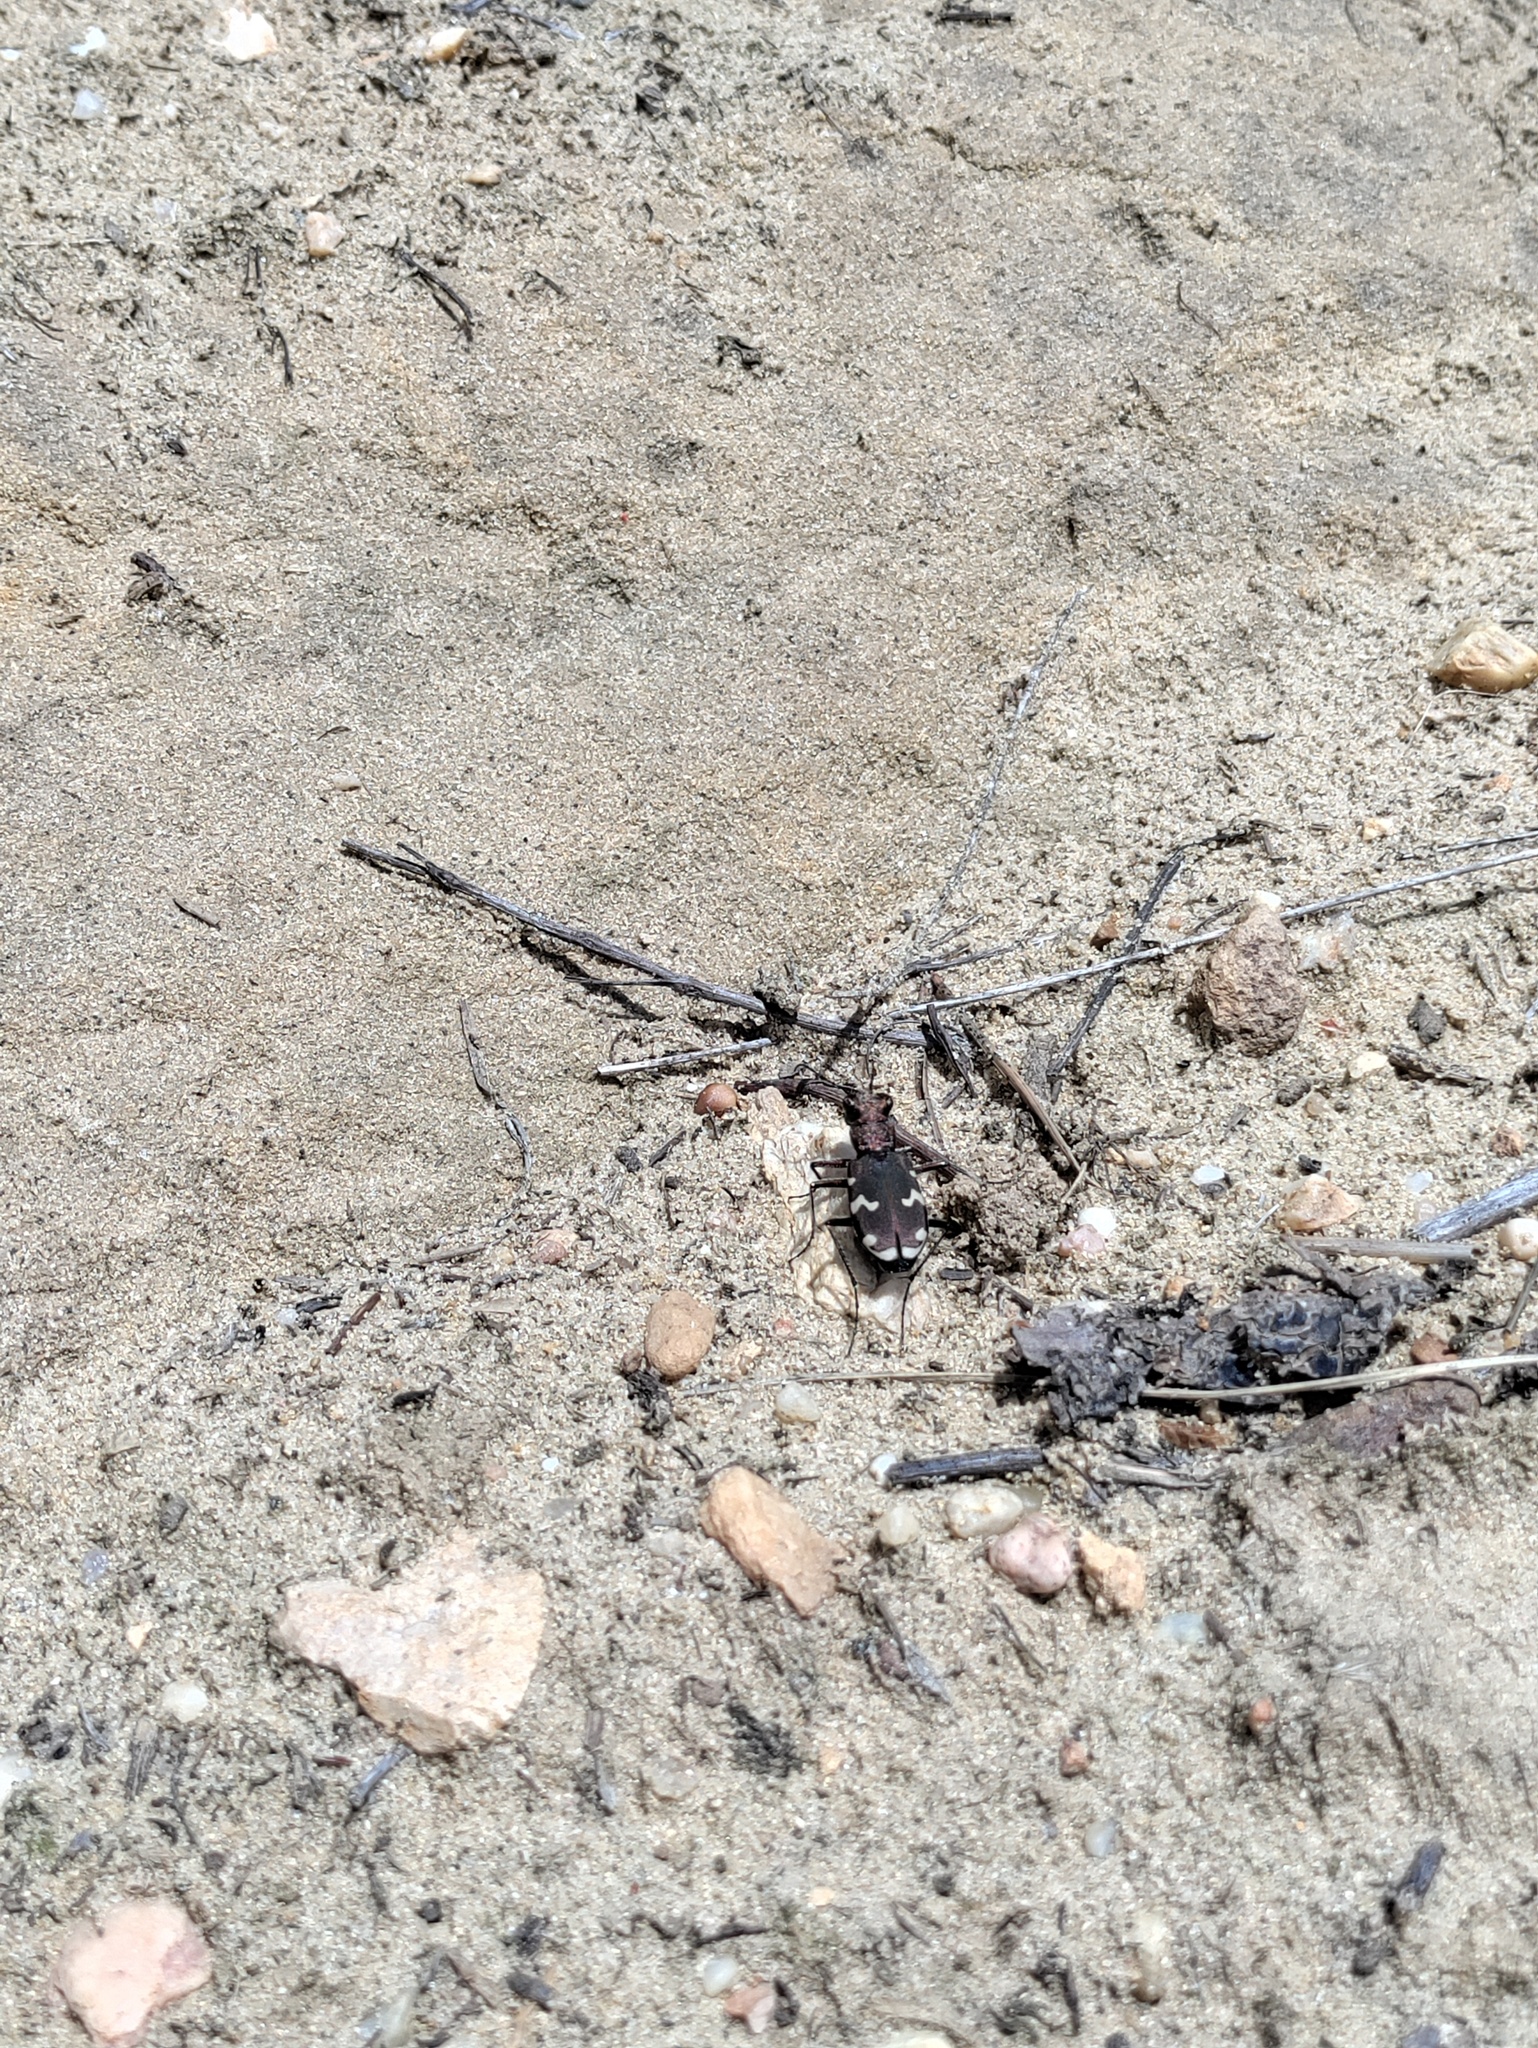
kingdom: Animalia
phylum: Arthropoda
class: Insecta
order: Coleoptera
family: Carabidae
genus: Cicindela
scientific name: Cicindela sylvicola
